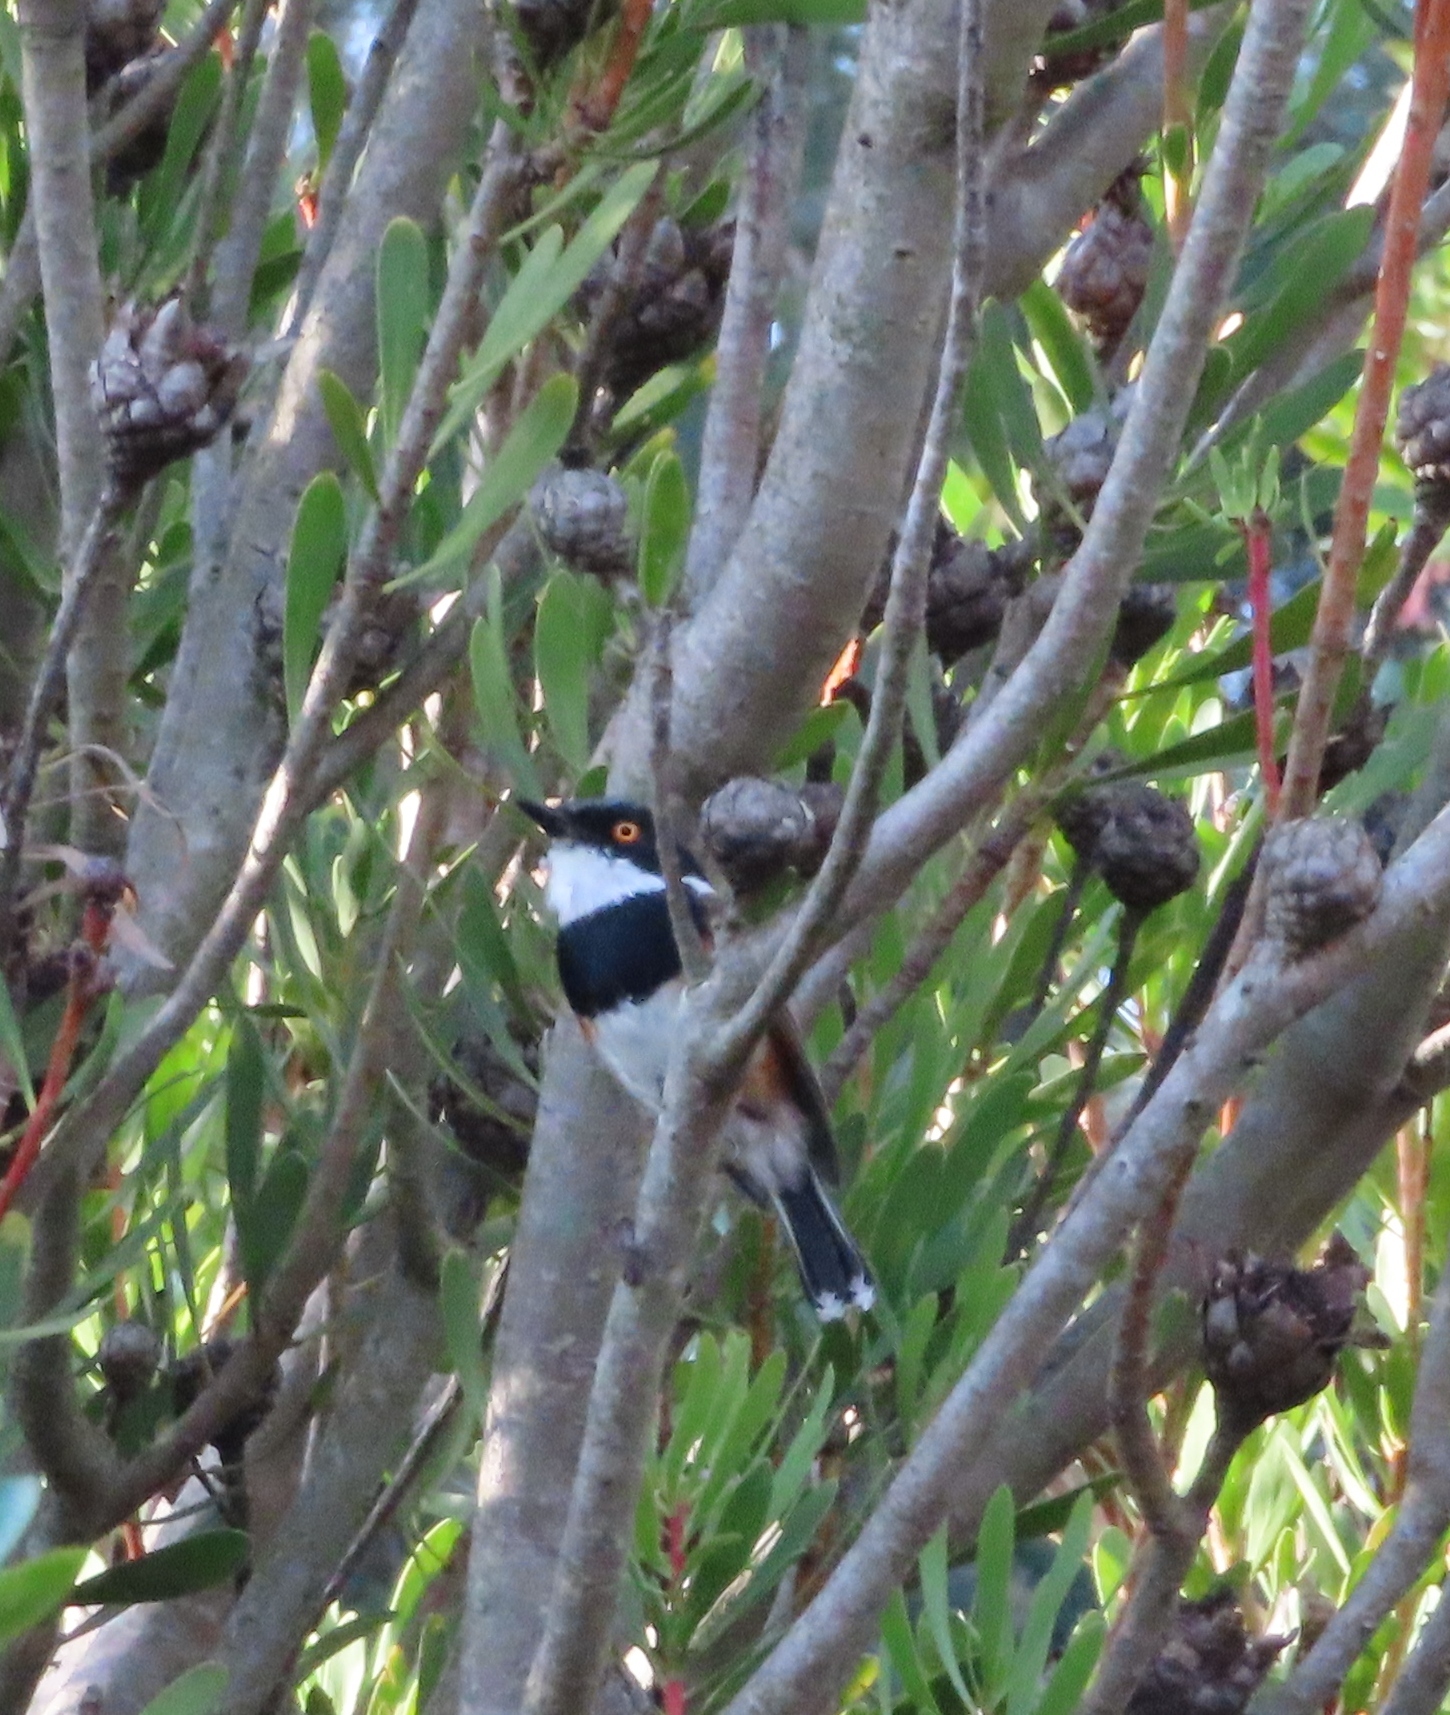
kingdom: Animalia
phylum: Chordata
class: Aves
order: Passeriformes
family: Platysteiridae
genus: Batis
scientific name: Batis capensis
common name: Cape batis
